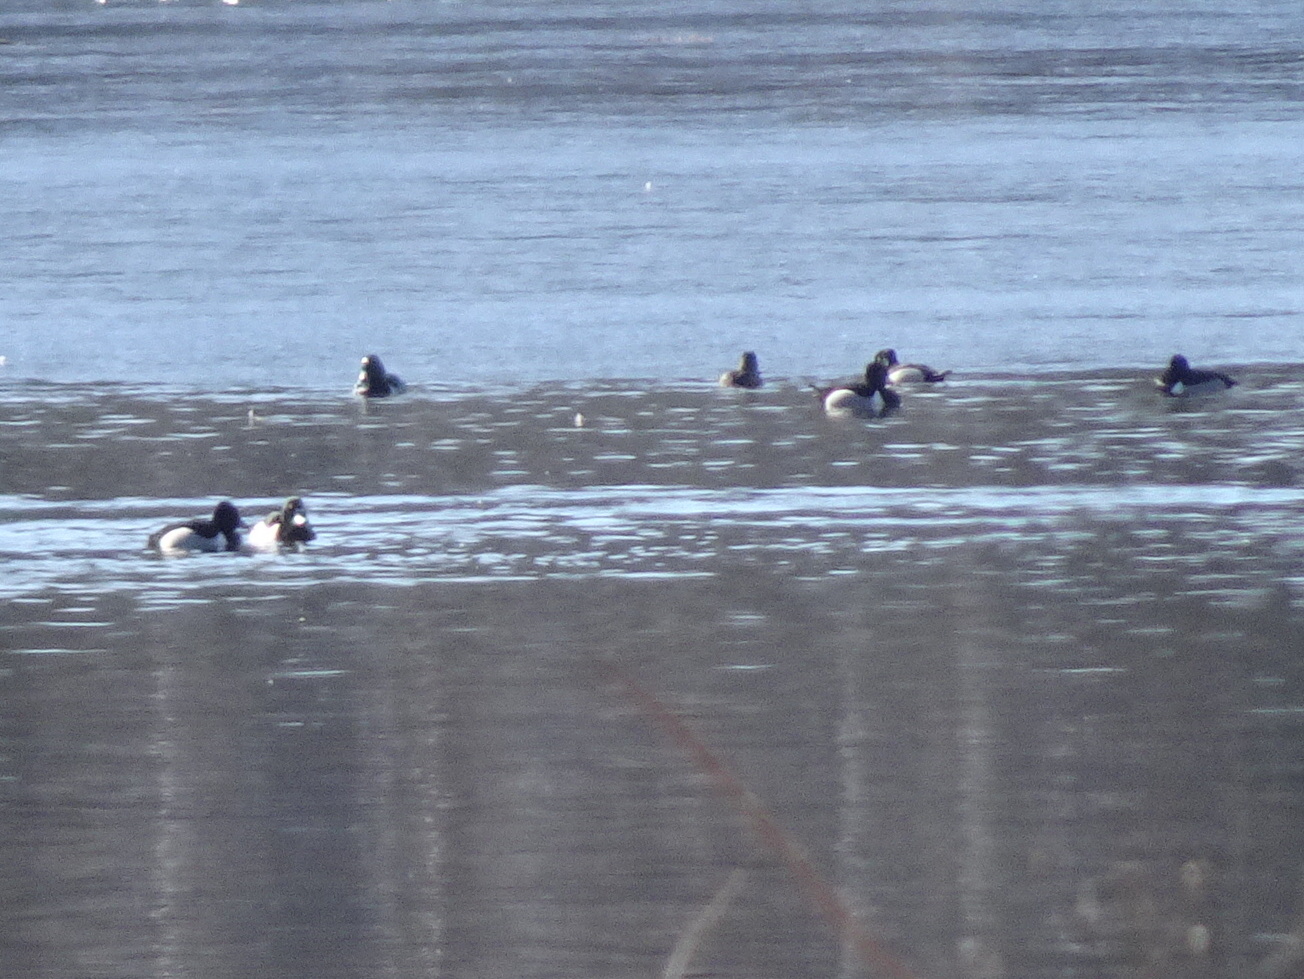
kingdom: Animalia
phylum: Chordata
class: Aves
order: Anseriformes
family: Anatidae
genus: Aythya
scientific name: Aythya collaris
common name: Ring-necked duck
